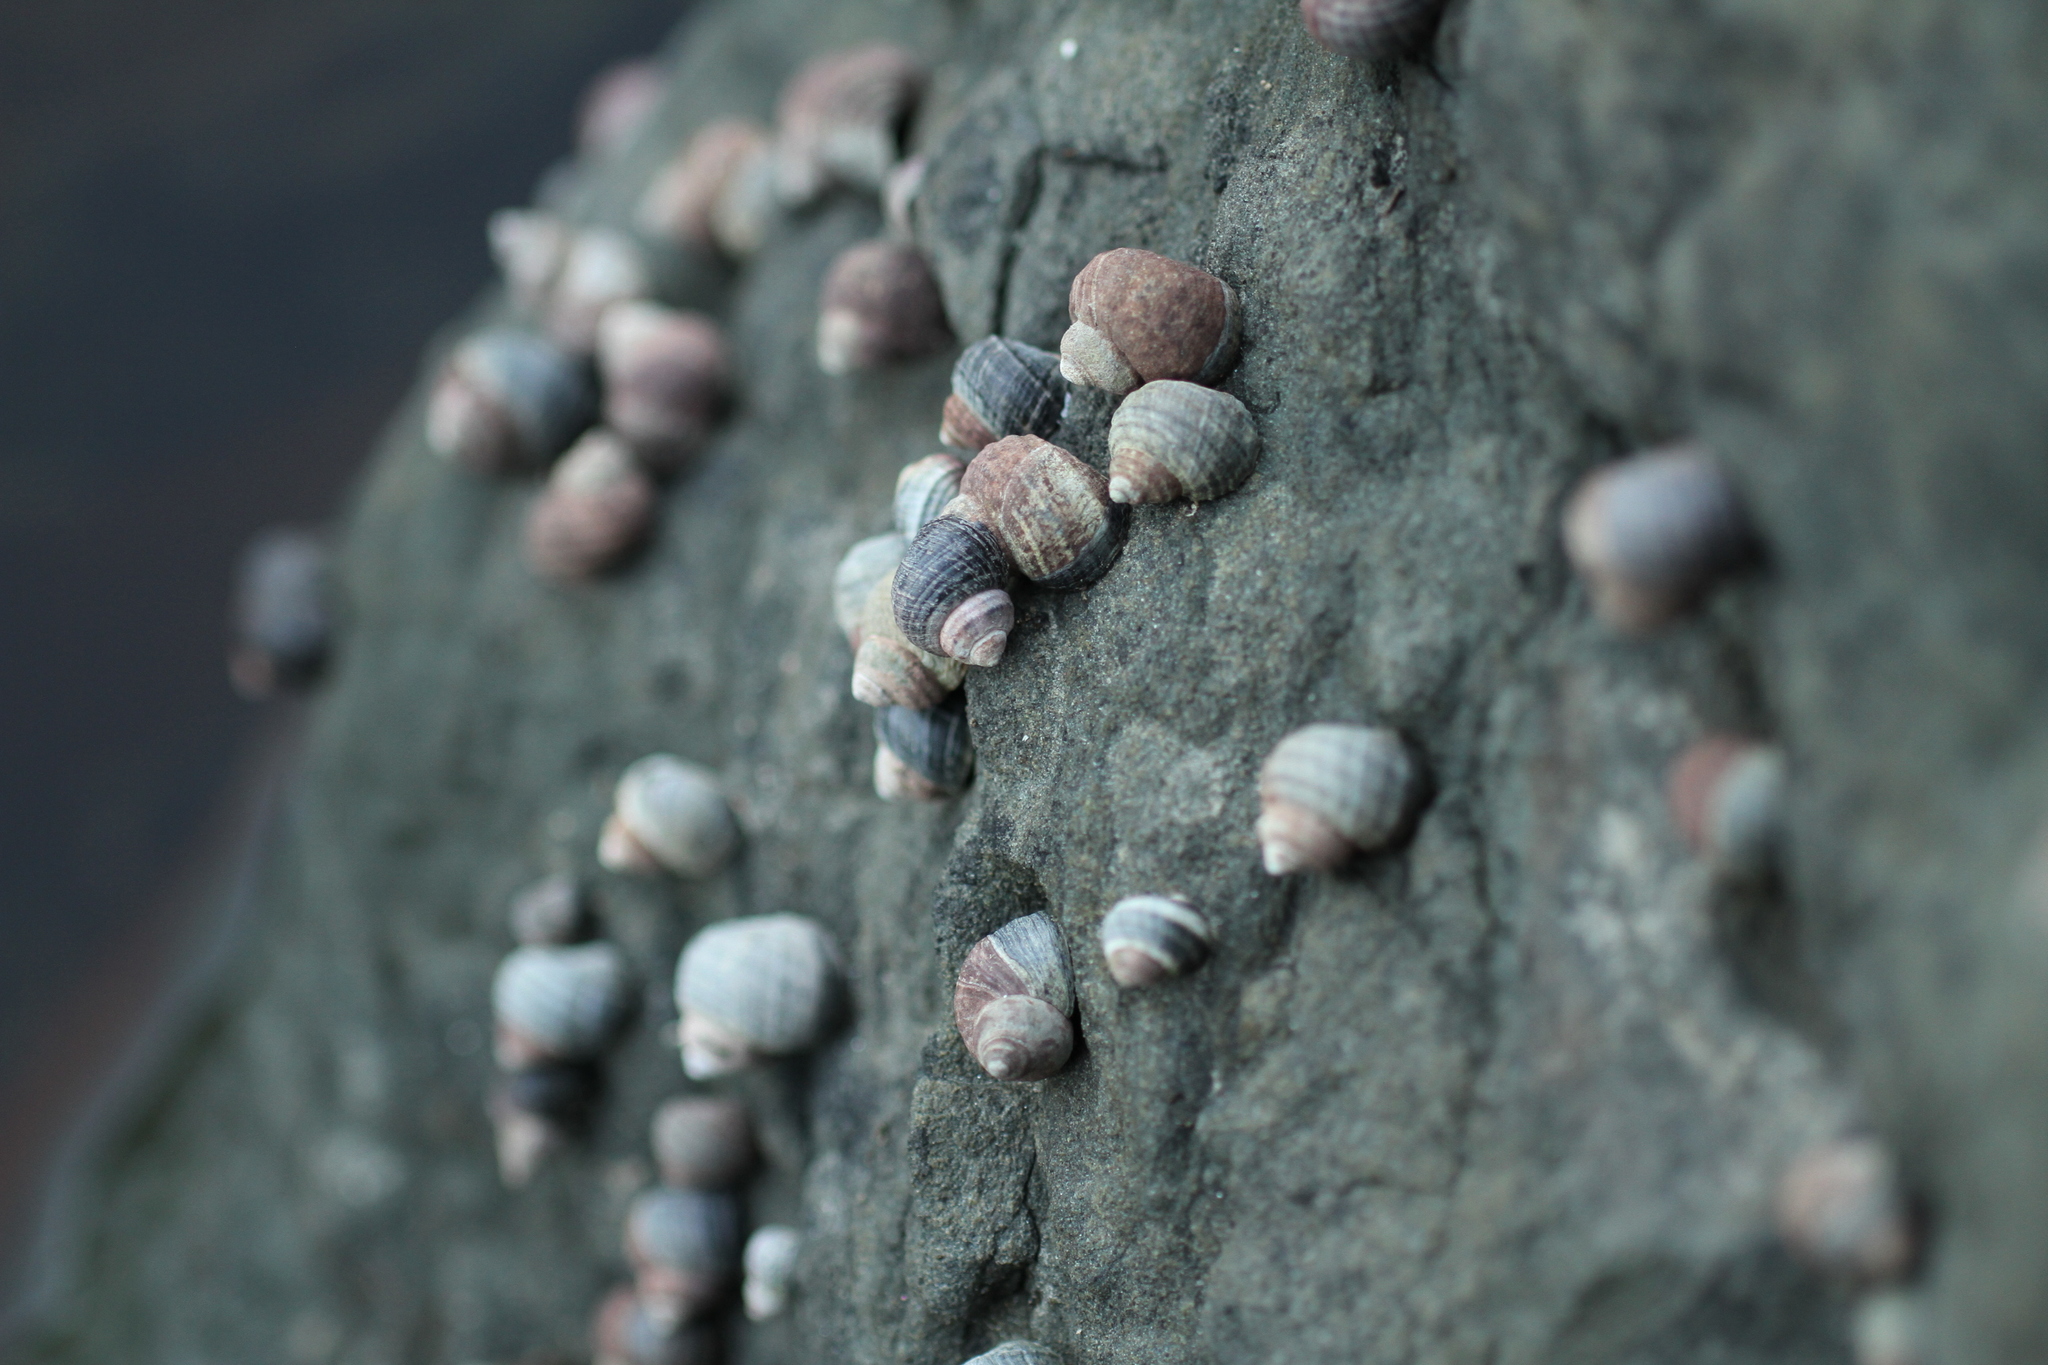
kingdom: Animalia
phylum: Mollusca
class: Gastropoda
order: Littorinimorpha
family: Littorinidae
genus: Littorina
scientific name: Littorina sitkana
